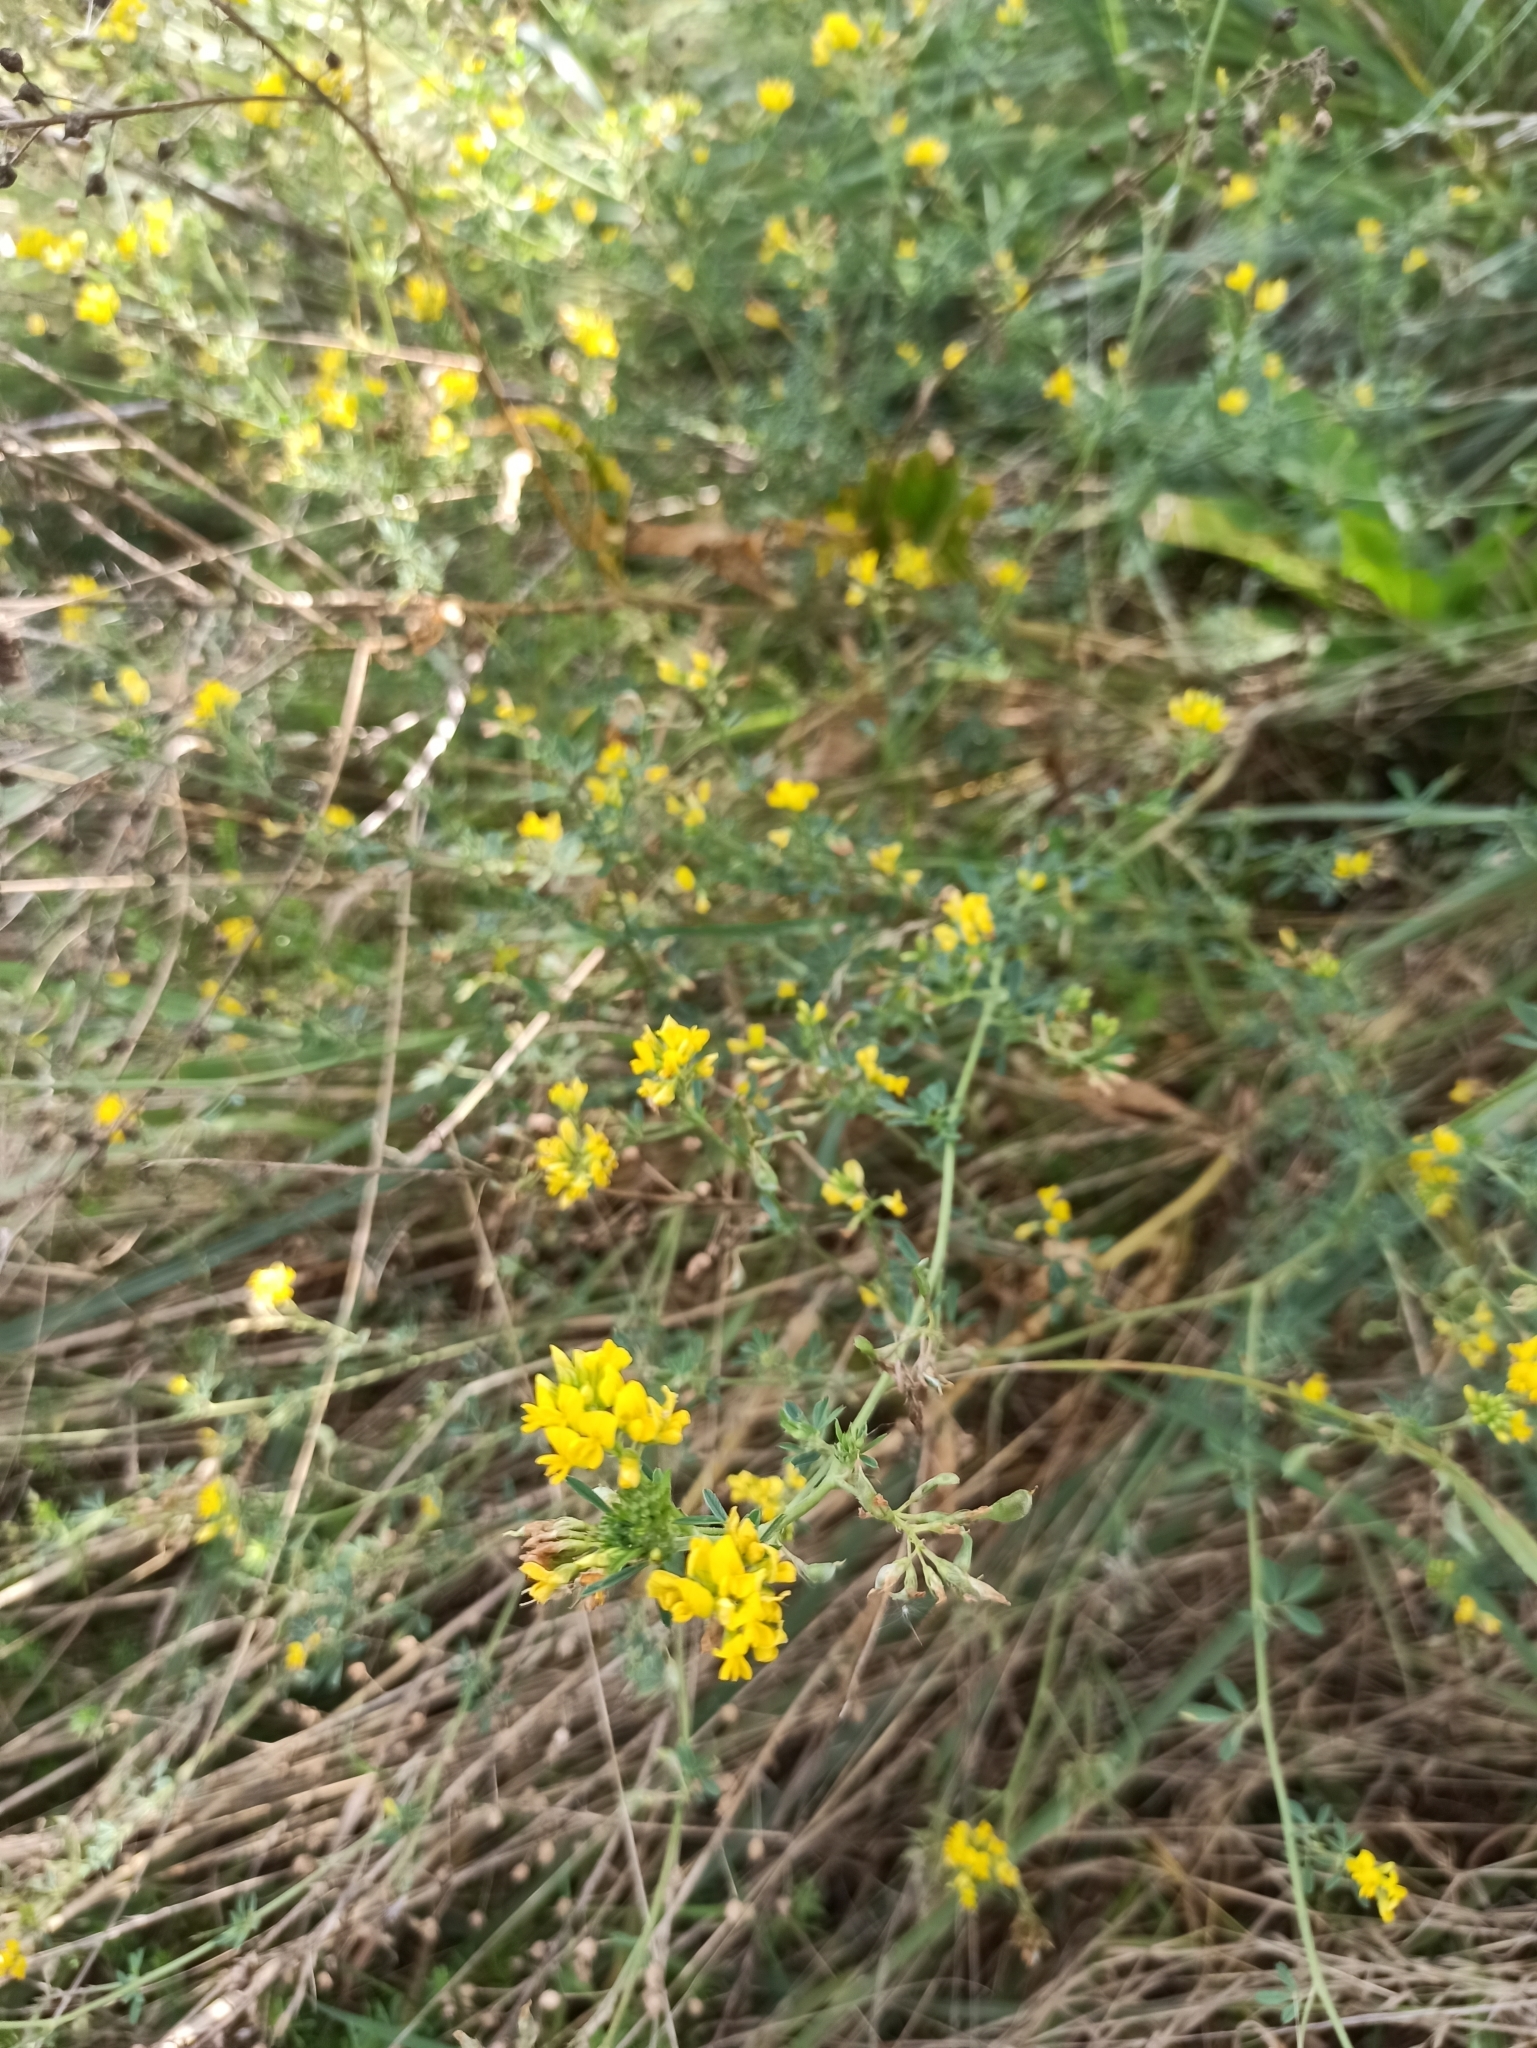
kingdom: Plantae
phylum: Tracheophyta
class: Magnoliopsida
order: Fabales
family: Fabaceae
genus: Medicago
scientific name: Medicago falcata
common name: Sickle medick
